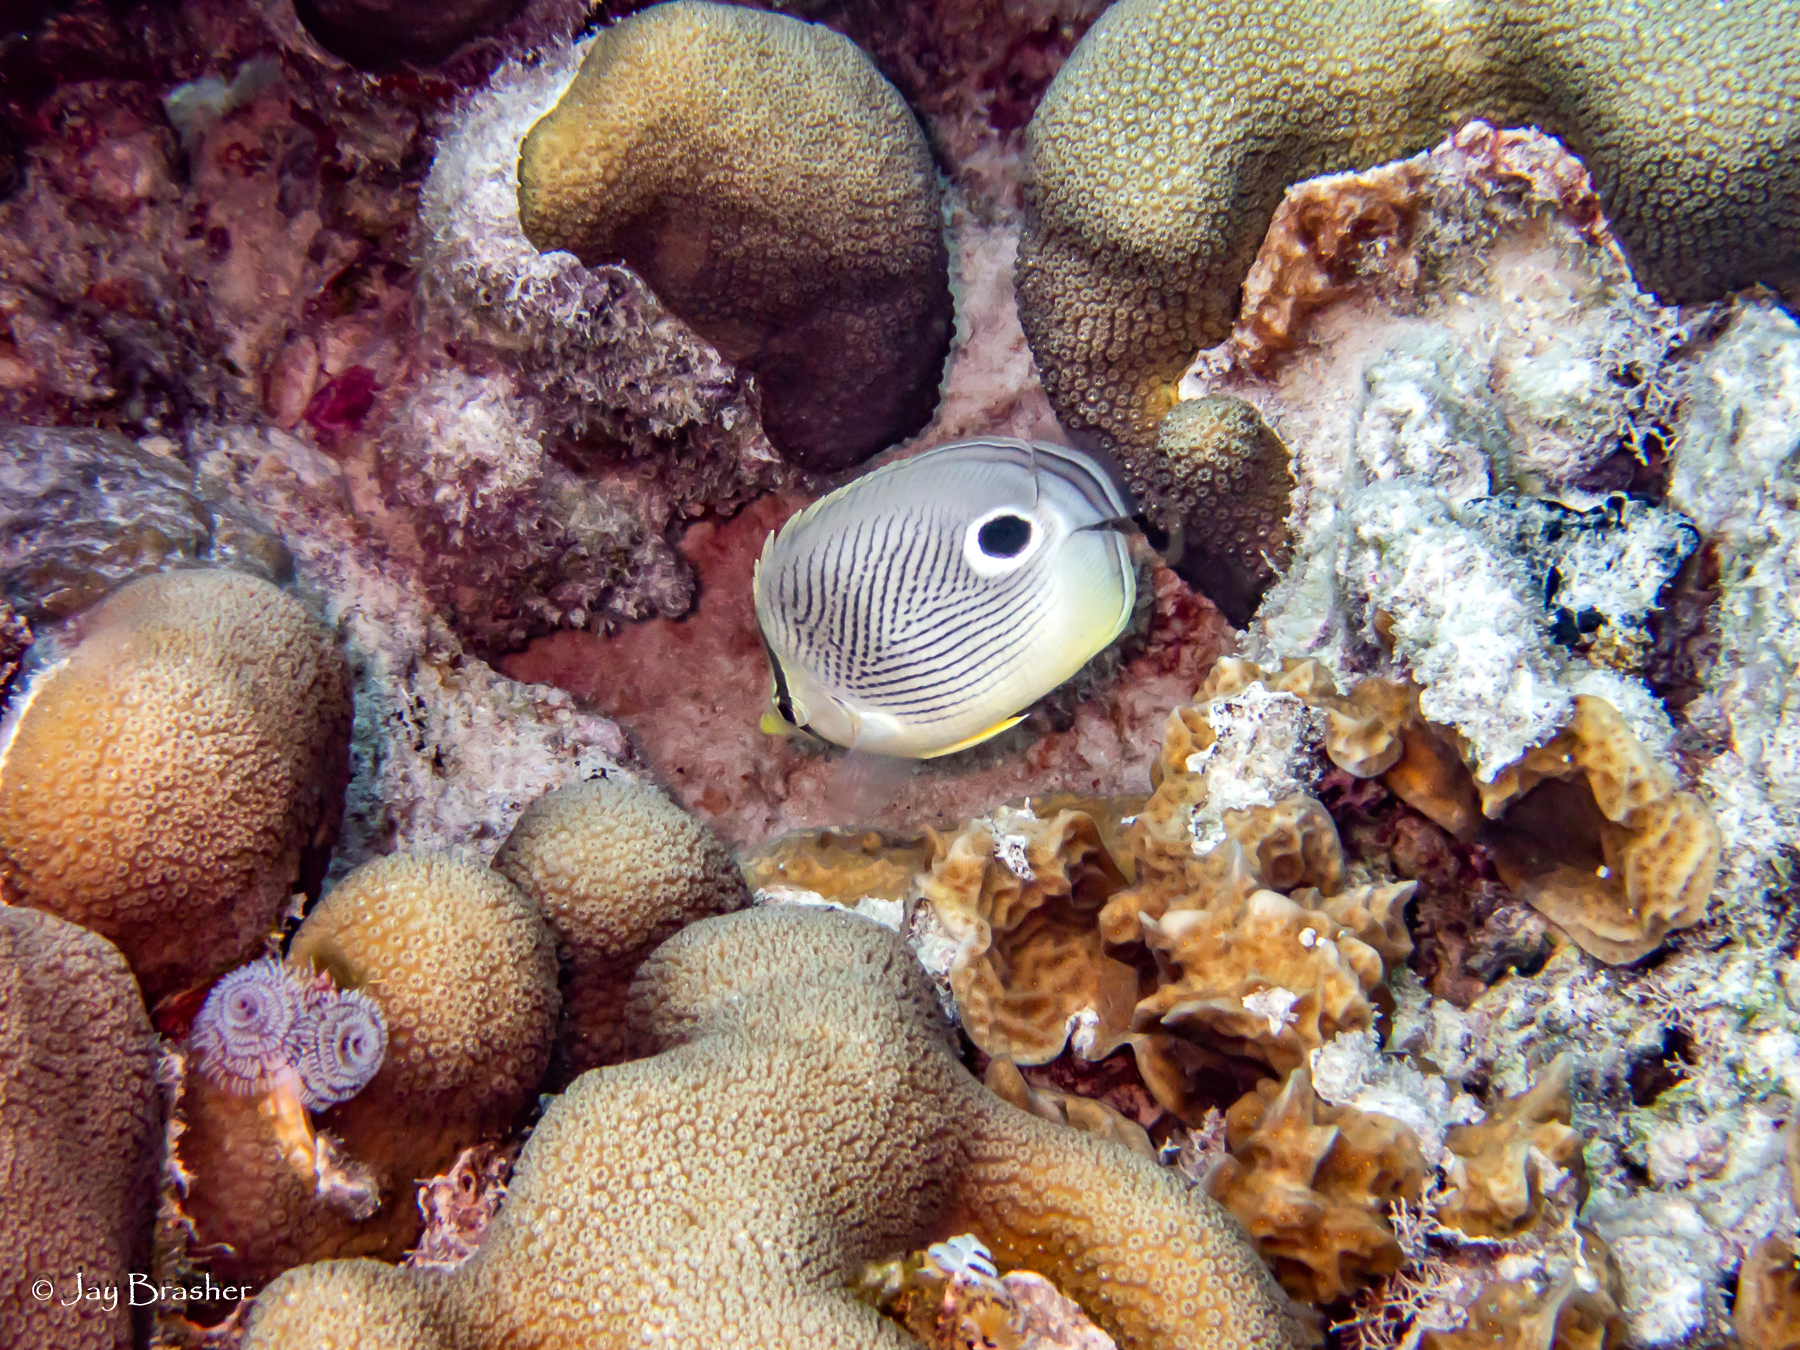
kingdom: Animalia
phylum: Cnidaria
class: Anthozoa
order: Scleractinia
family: Merulinidae
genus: Orbicella
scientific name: Orbicella annularis
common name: Boulder star coral
